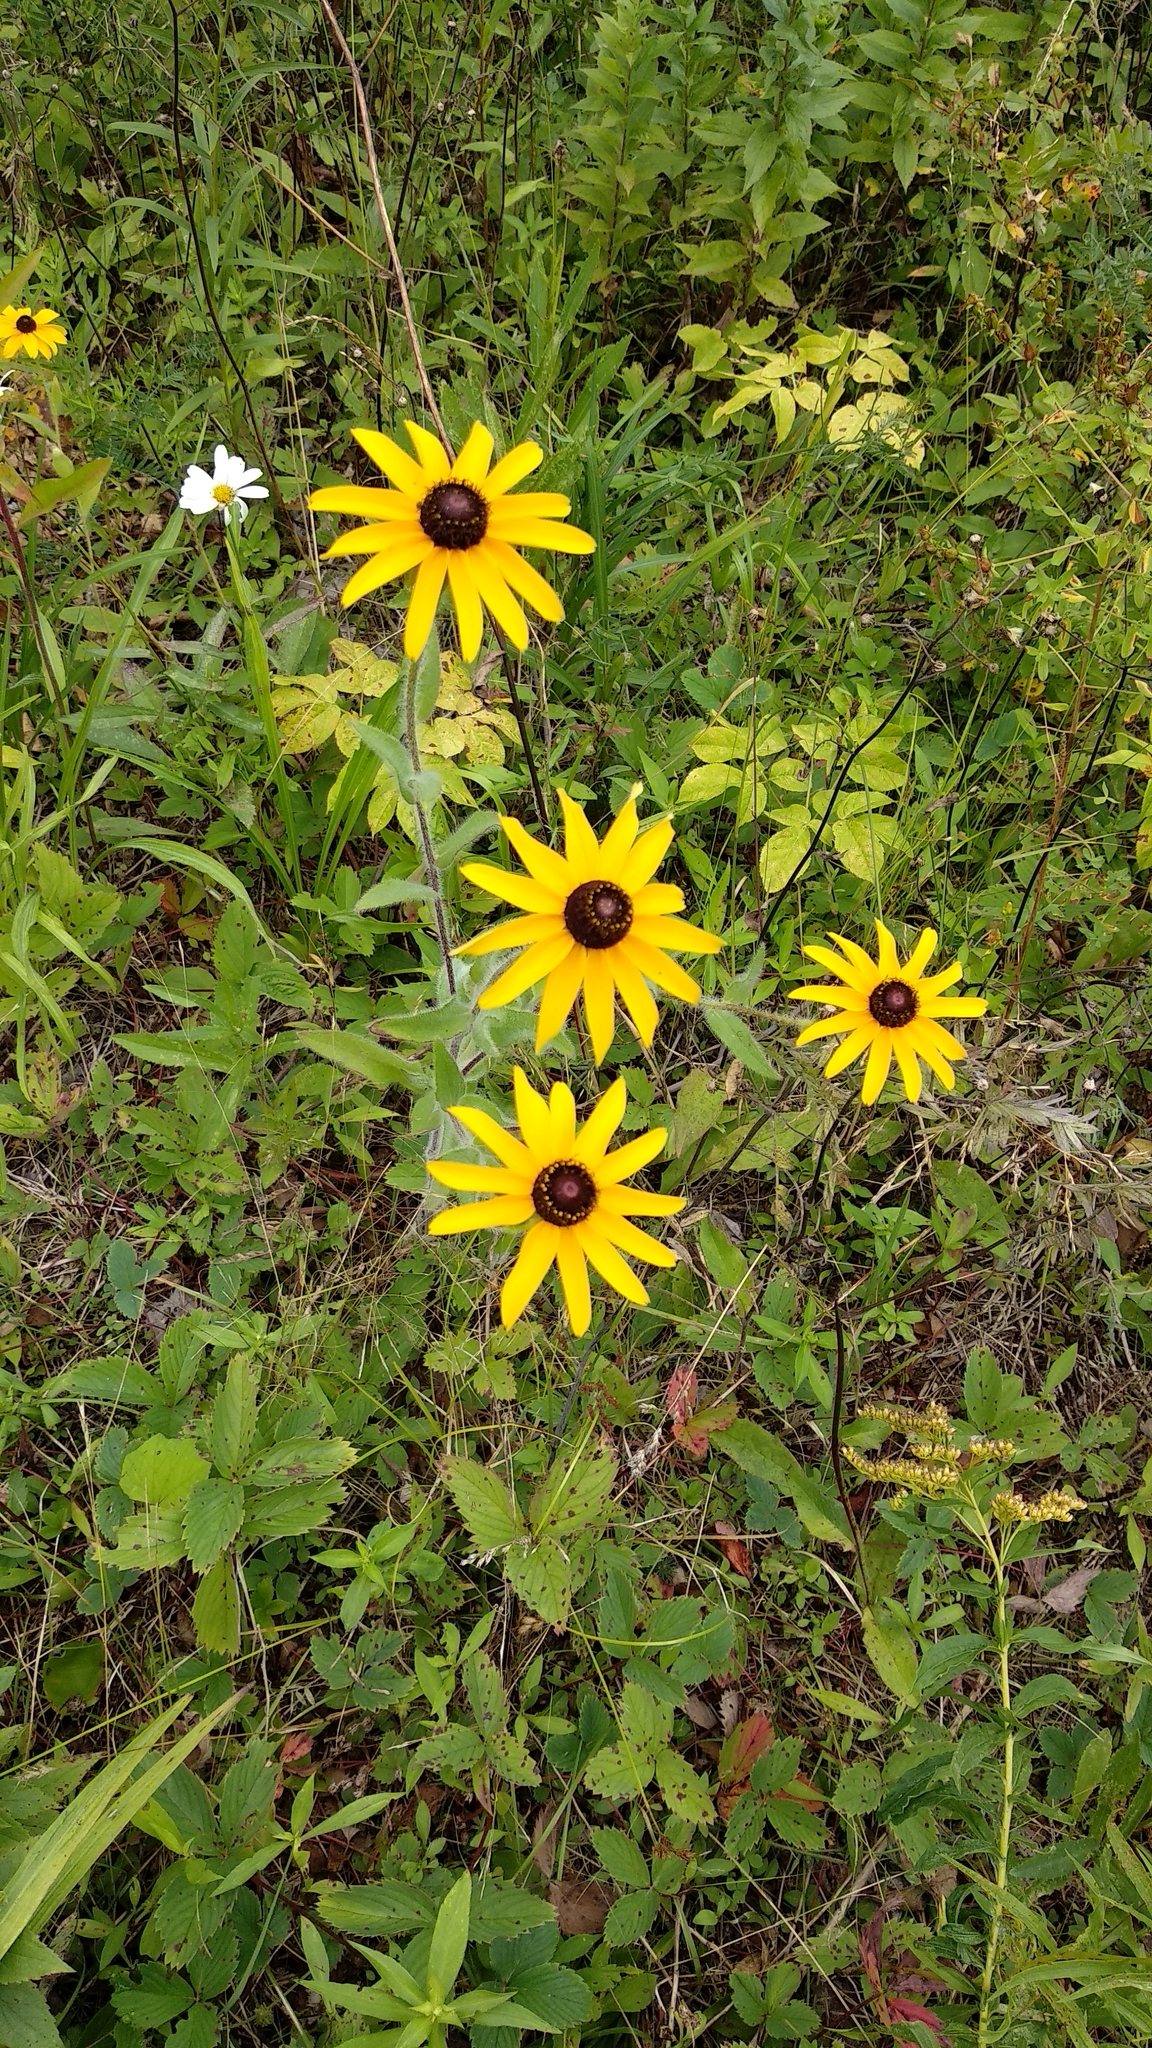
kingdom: Plantae
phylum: Tracheophyta
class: Magnoliopsida
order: Asterales
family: Asteraceae
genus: Rudbeckia
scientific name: Rudbeckia hirta
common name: Black-eyed-susan
